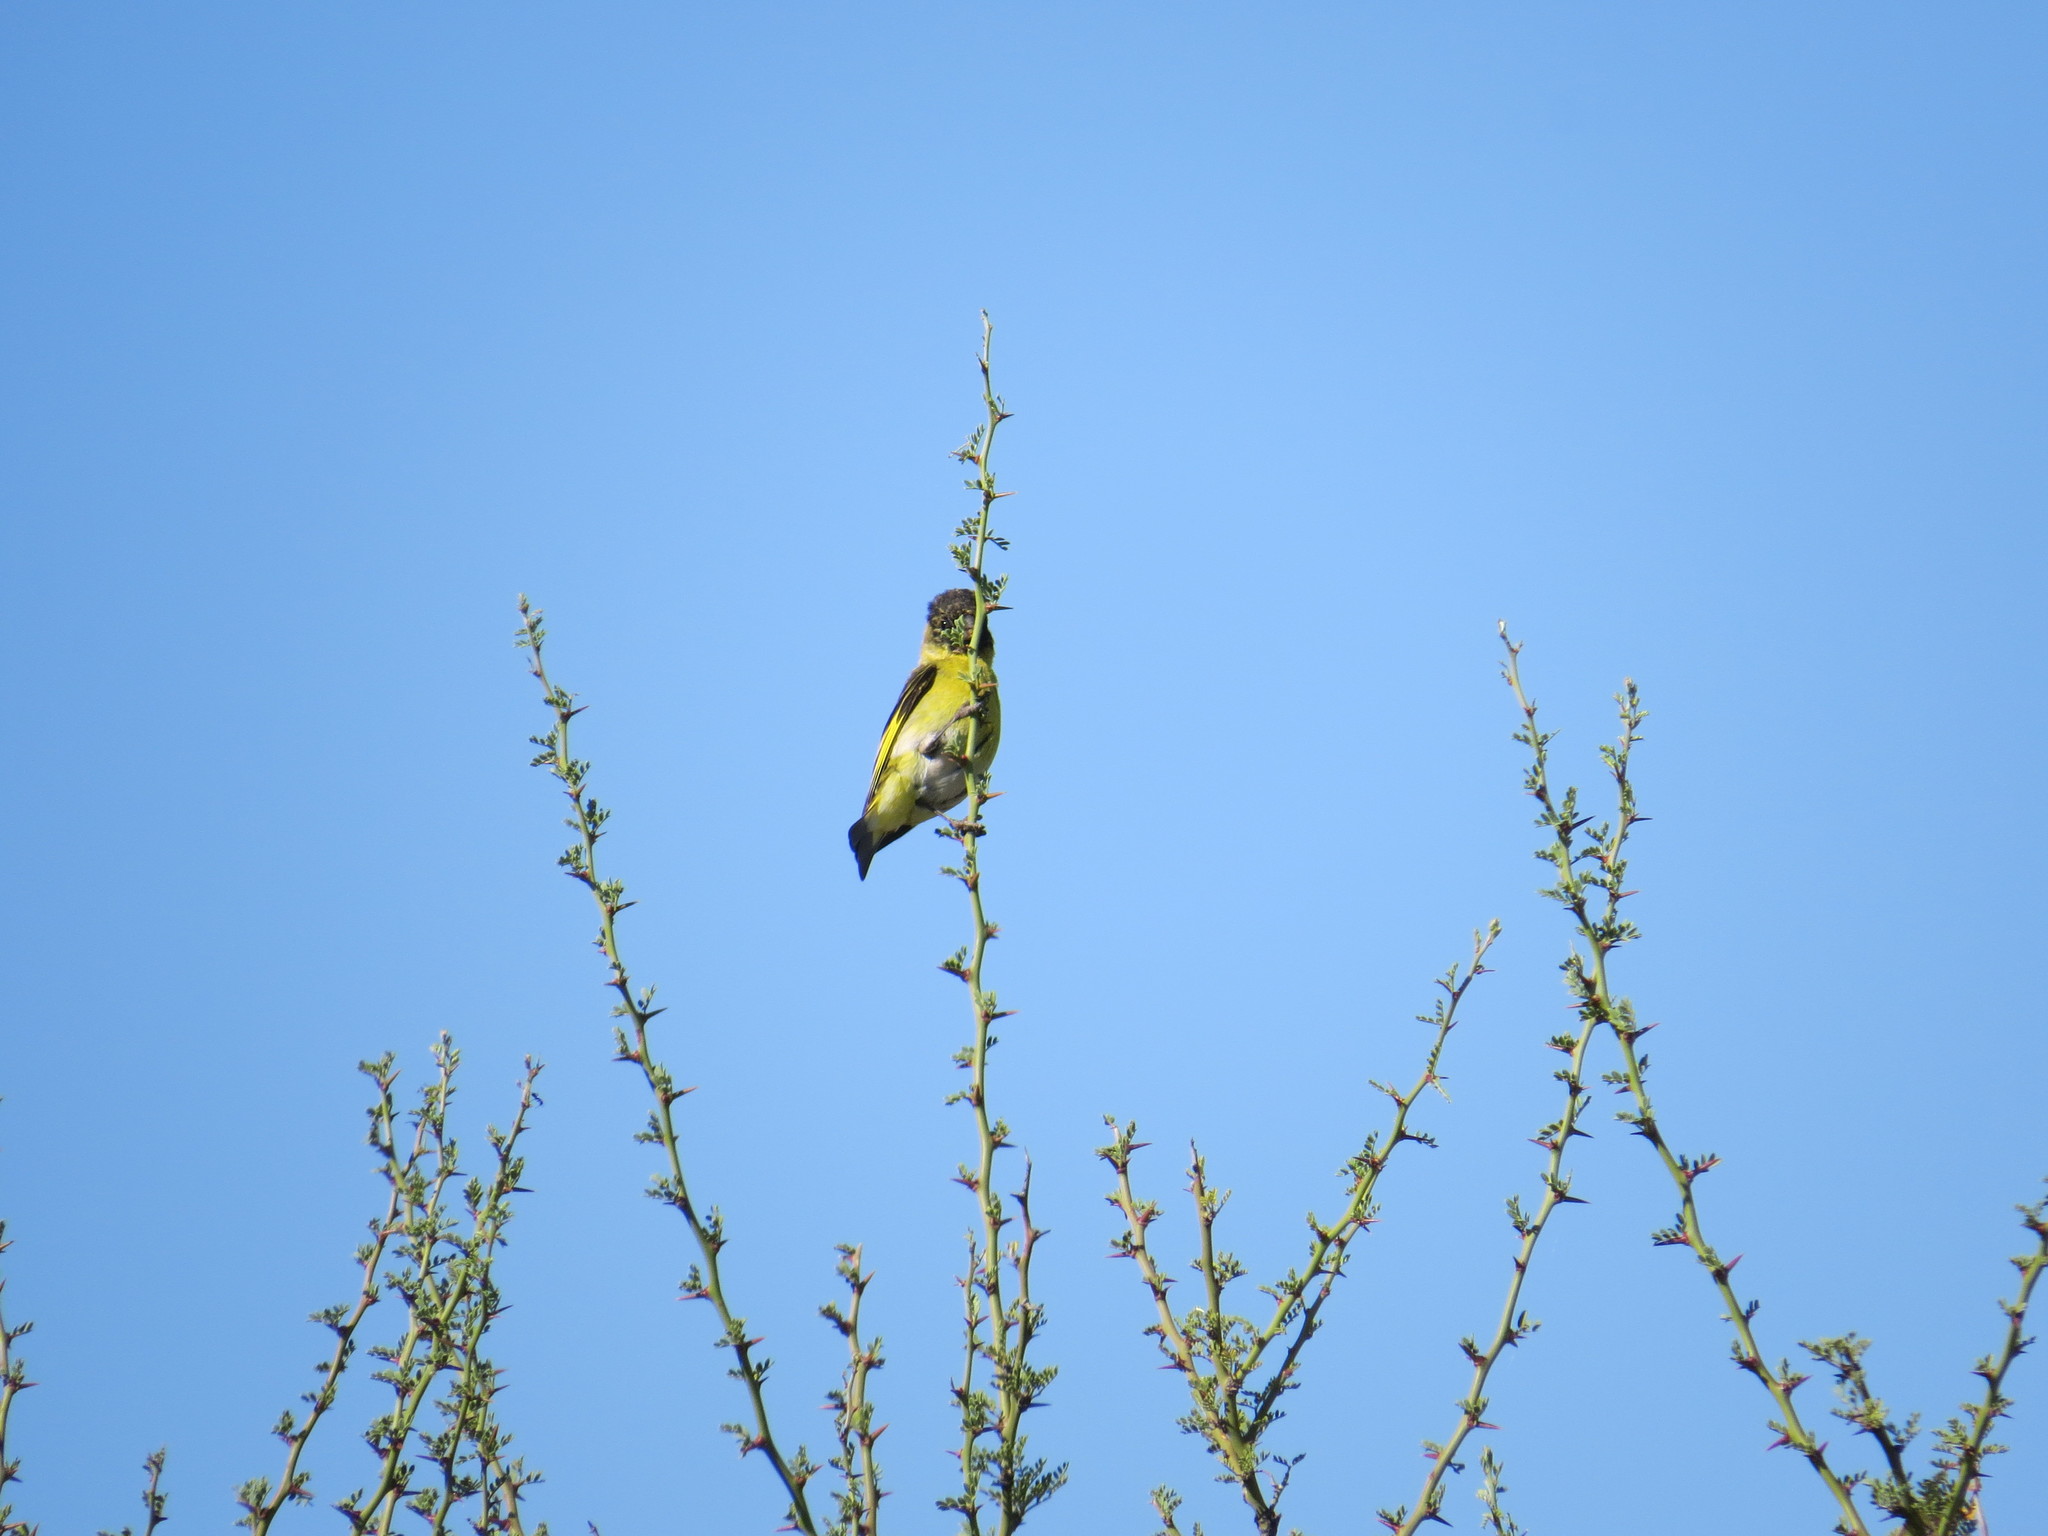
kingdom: Animalia
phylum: Chordata
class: Aves
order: Passeriformes
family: Fringillidae
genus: Spinus
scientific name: Spinus magellanicus
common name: Hooded siskin
